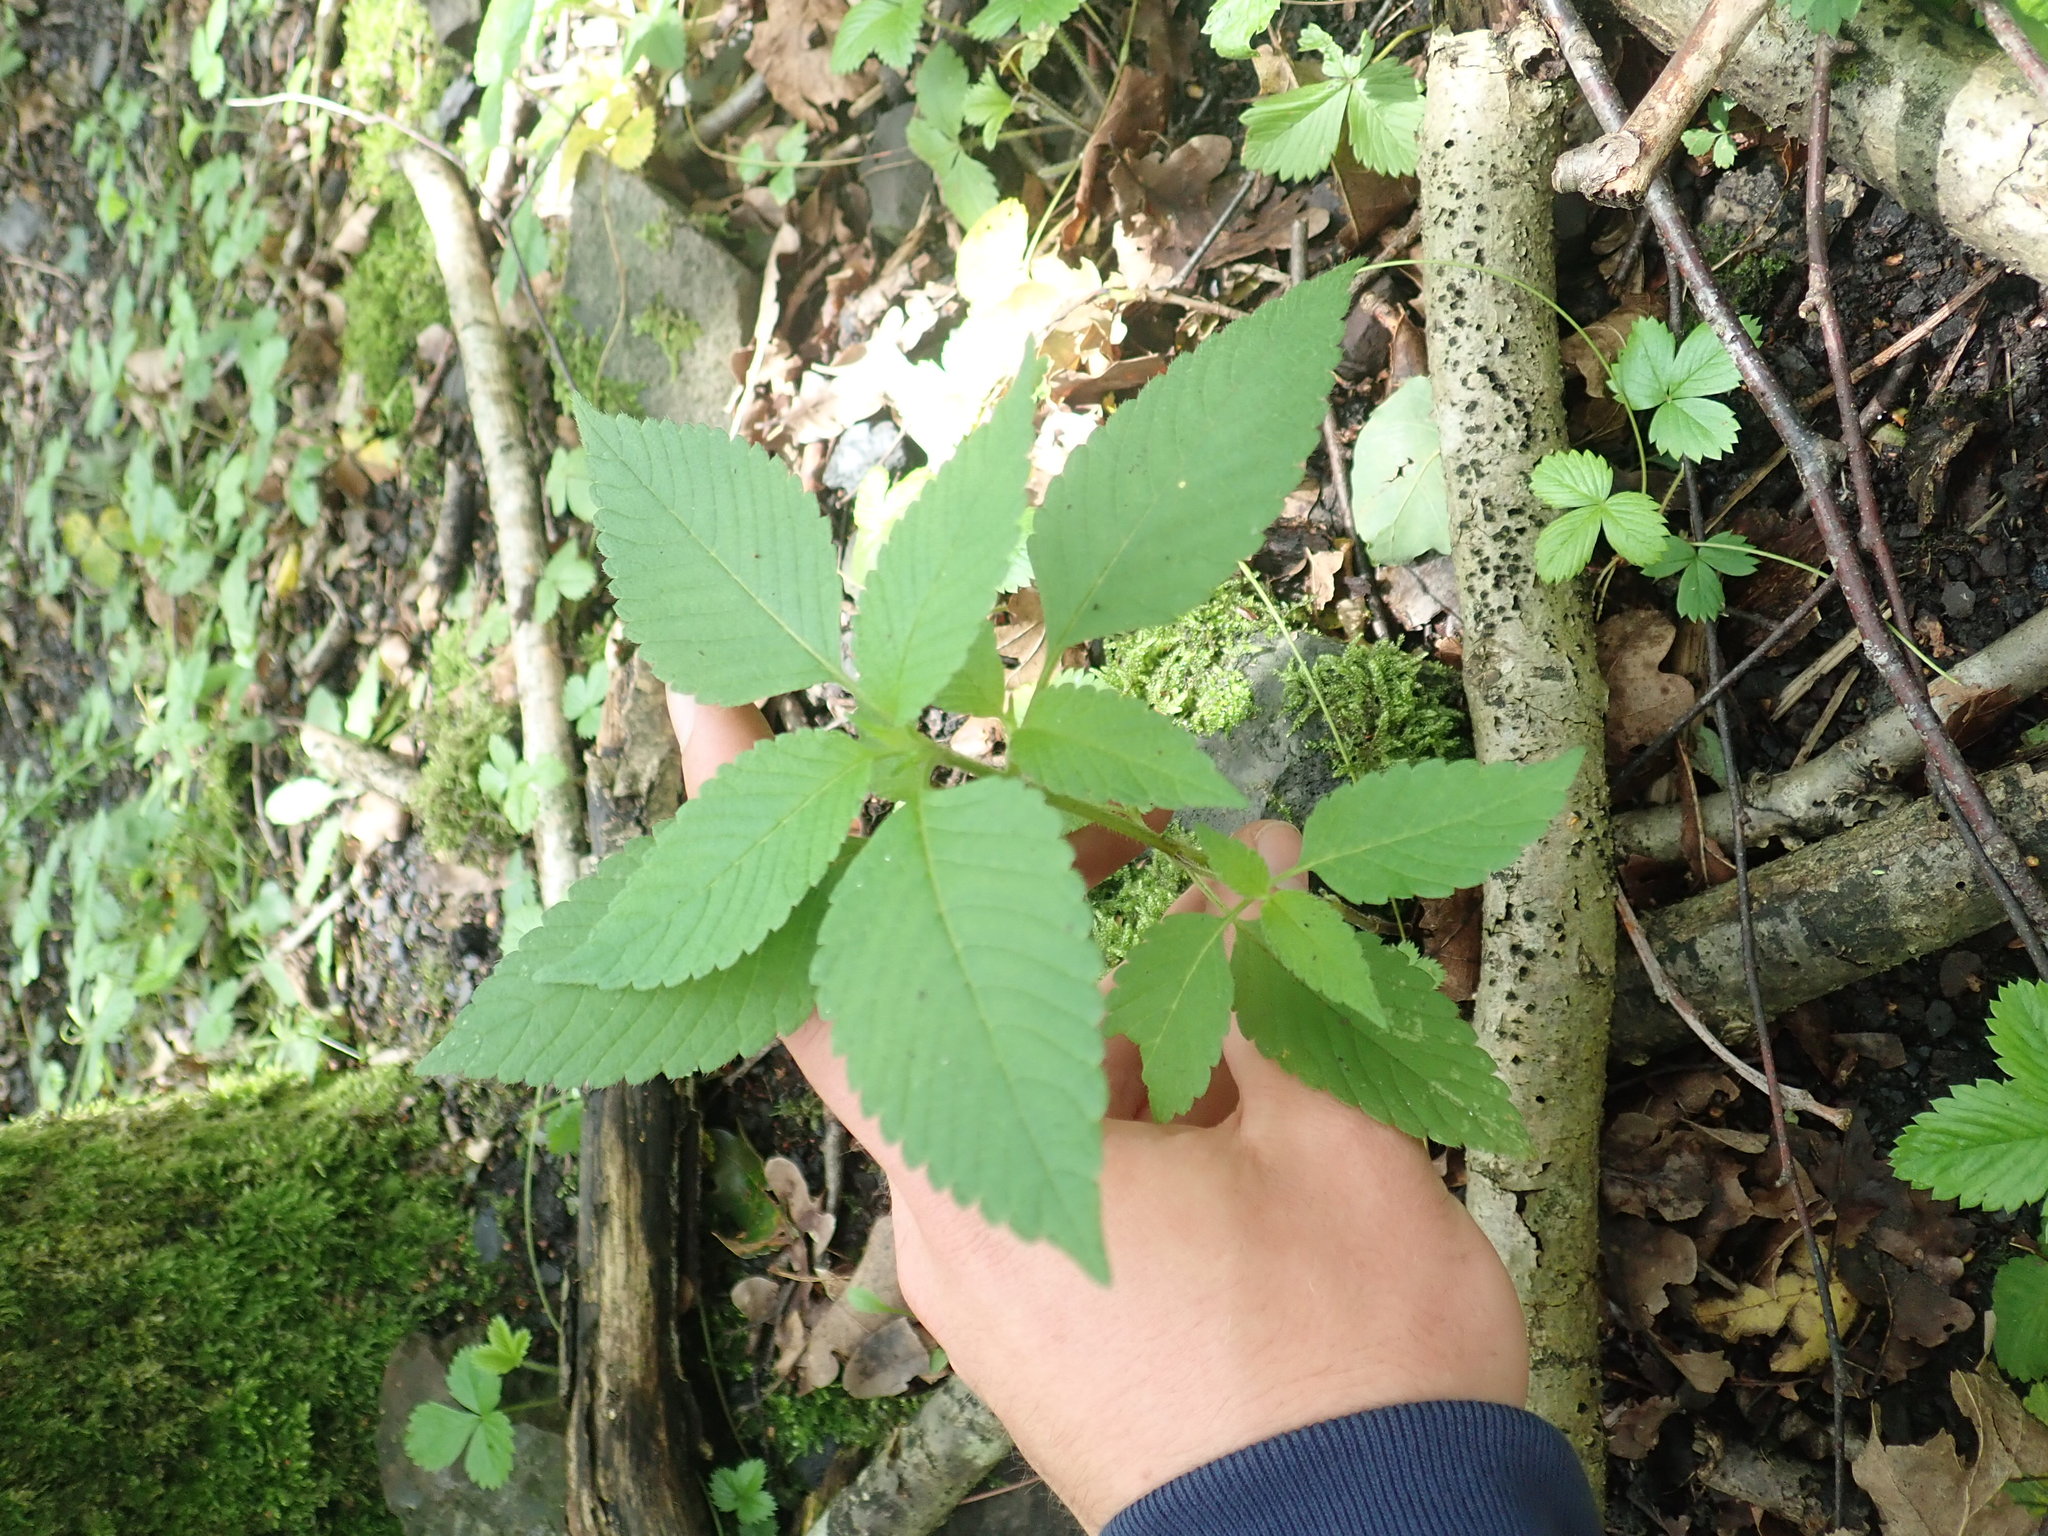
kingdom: Plantae
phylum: Tracheophyta
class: Magnoliopsida
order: Lamiales
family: Lamiaceae
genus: Galeopsis
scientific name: Galeopsis
